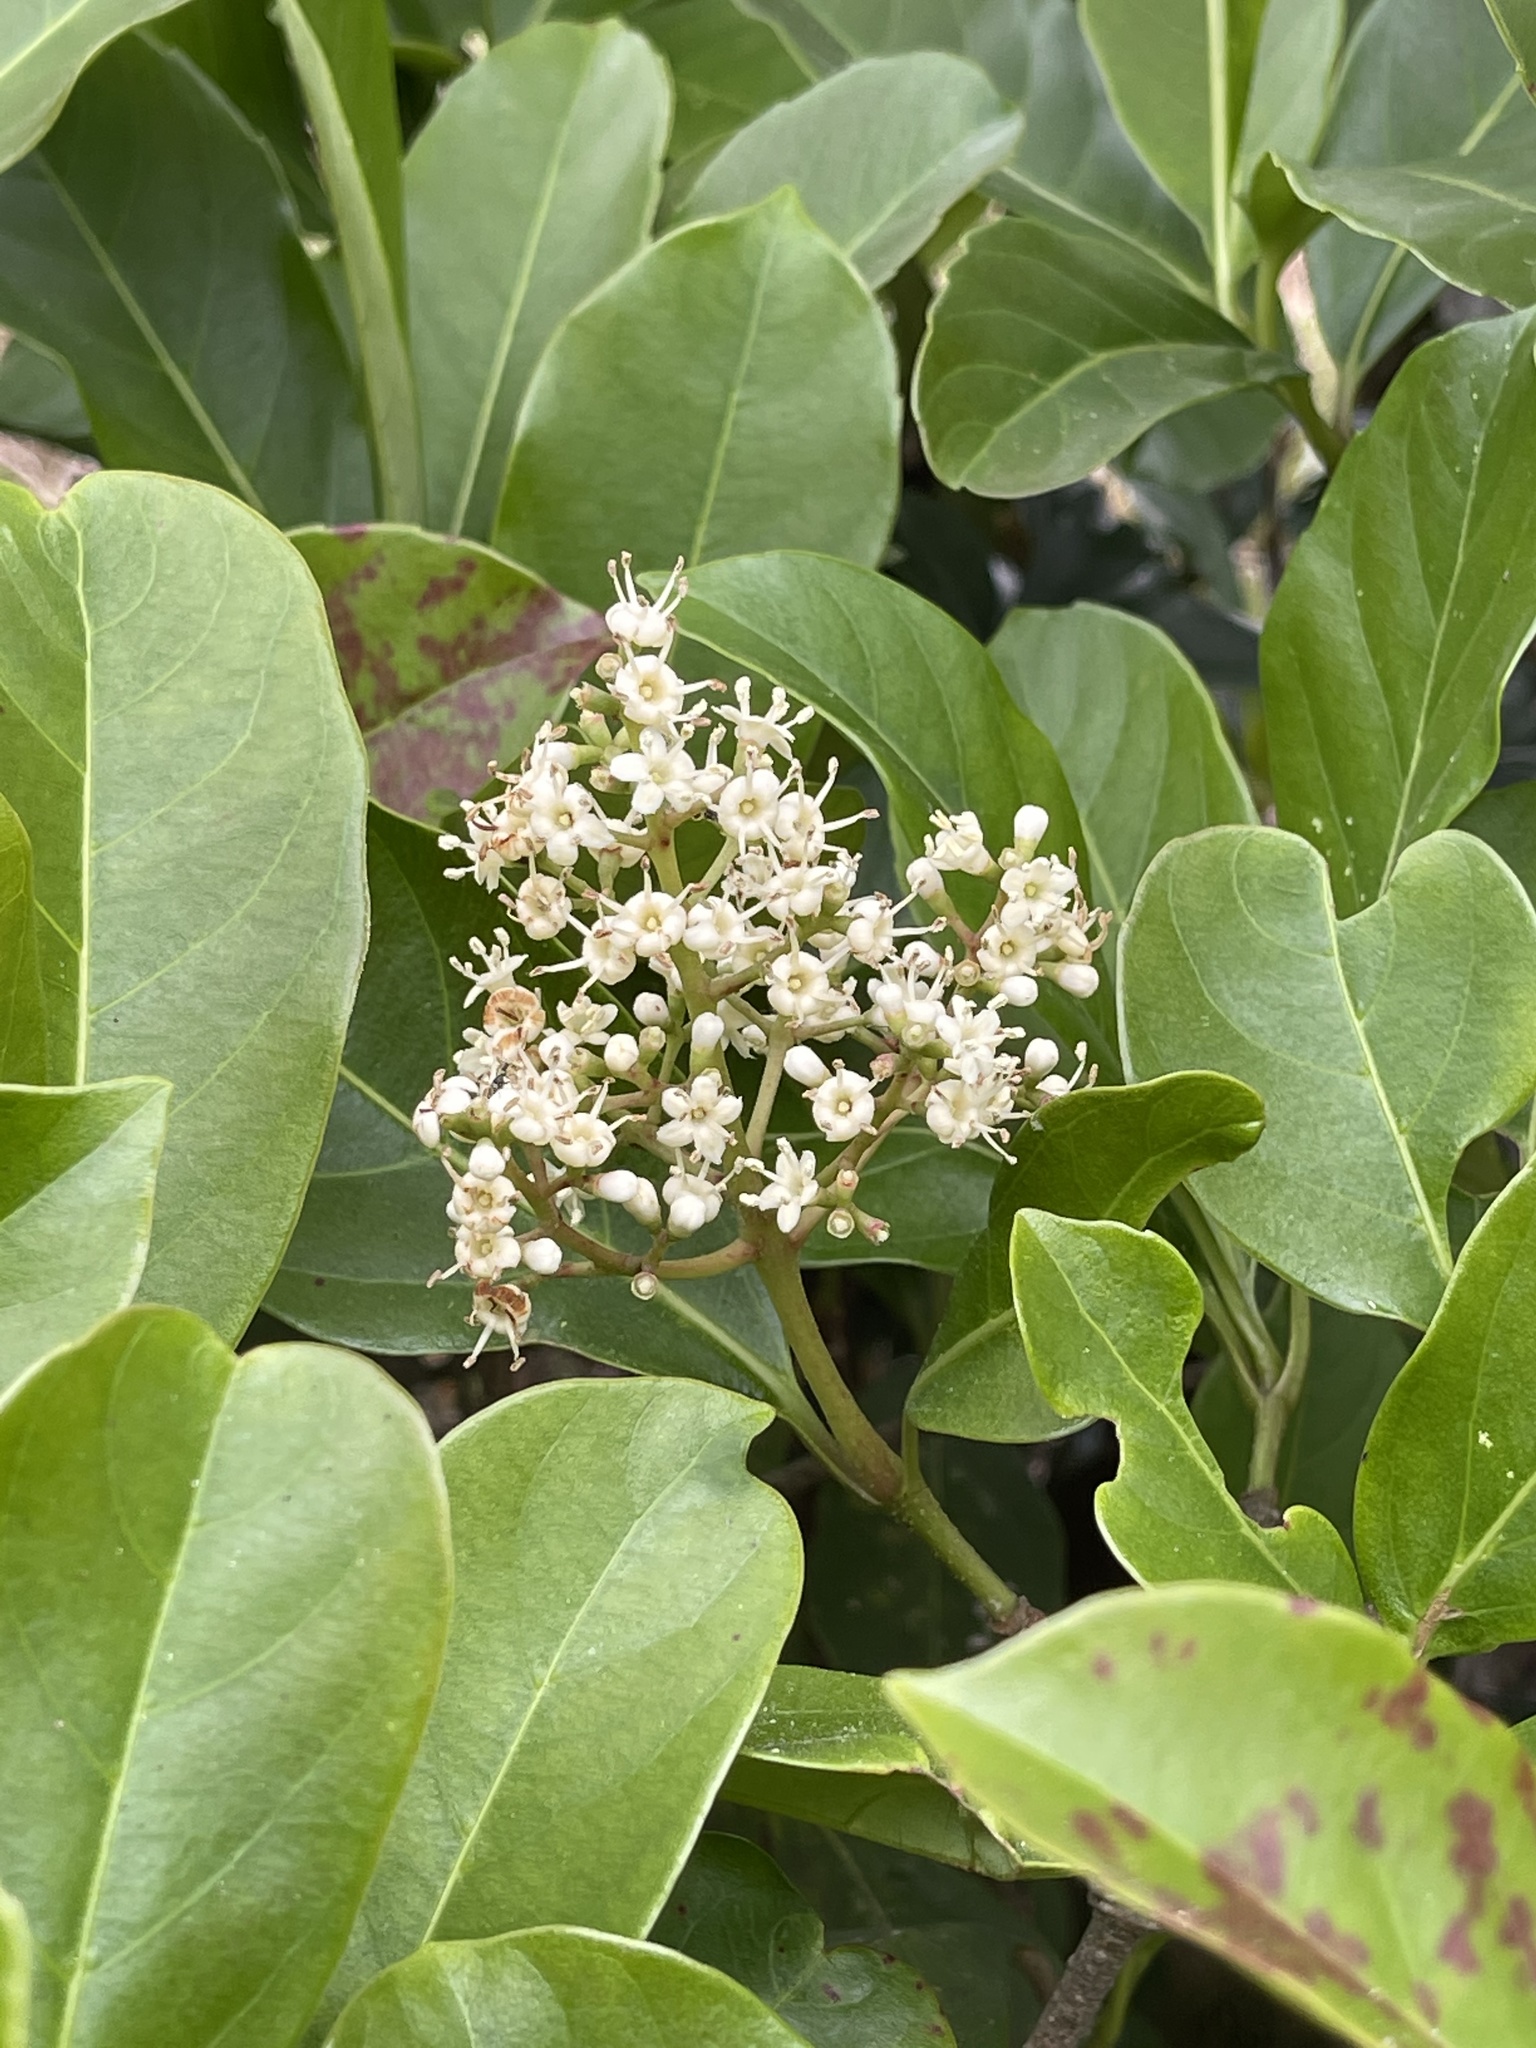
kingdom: Plantae
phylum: Tracheophyta
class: Magnoliopsida
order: Dipsacales
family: Viburnaceae
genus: Viburnum
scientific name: Viburnum odoratissimum
